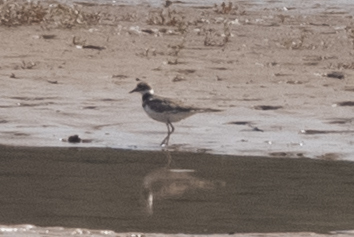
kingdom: Animalia
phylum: Chordata
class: Aves
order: Charadriiformes
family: Charadriidae
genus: Charadrius
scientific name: Charadrius vociferus
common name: Killdeer
